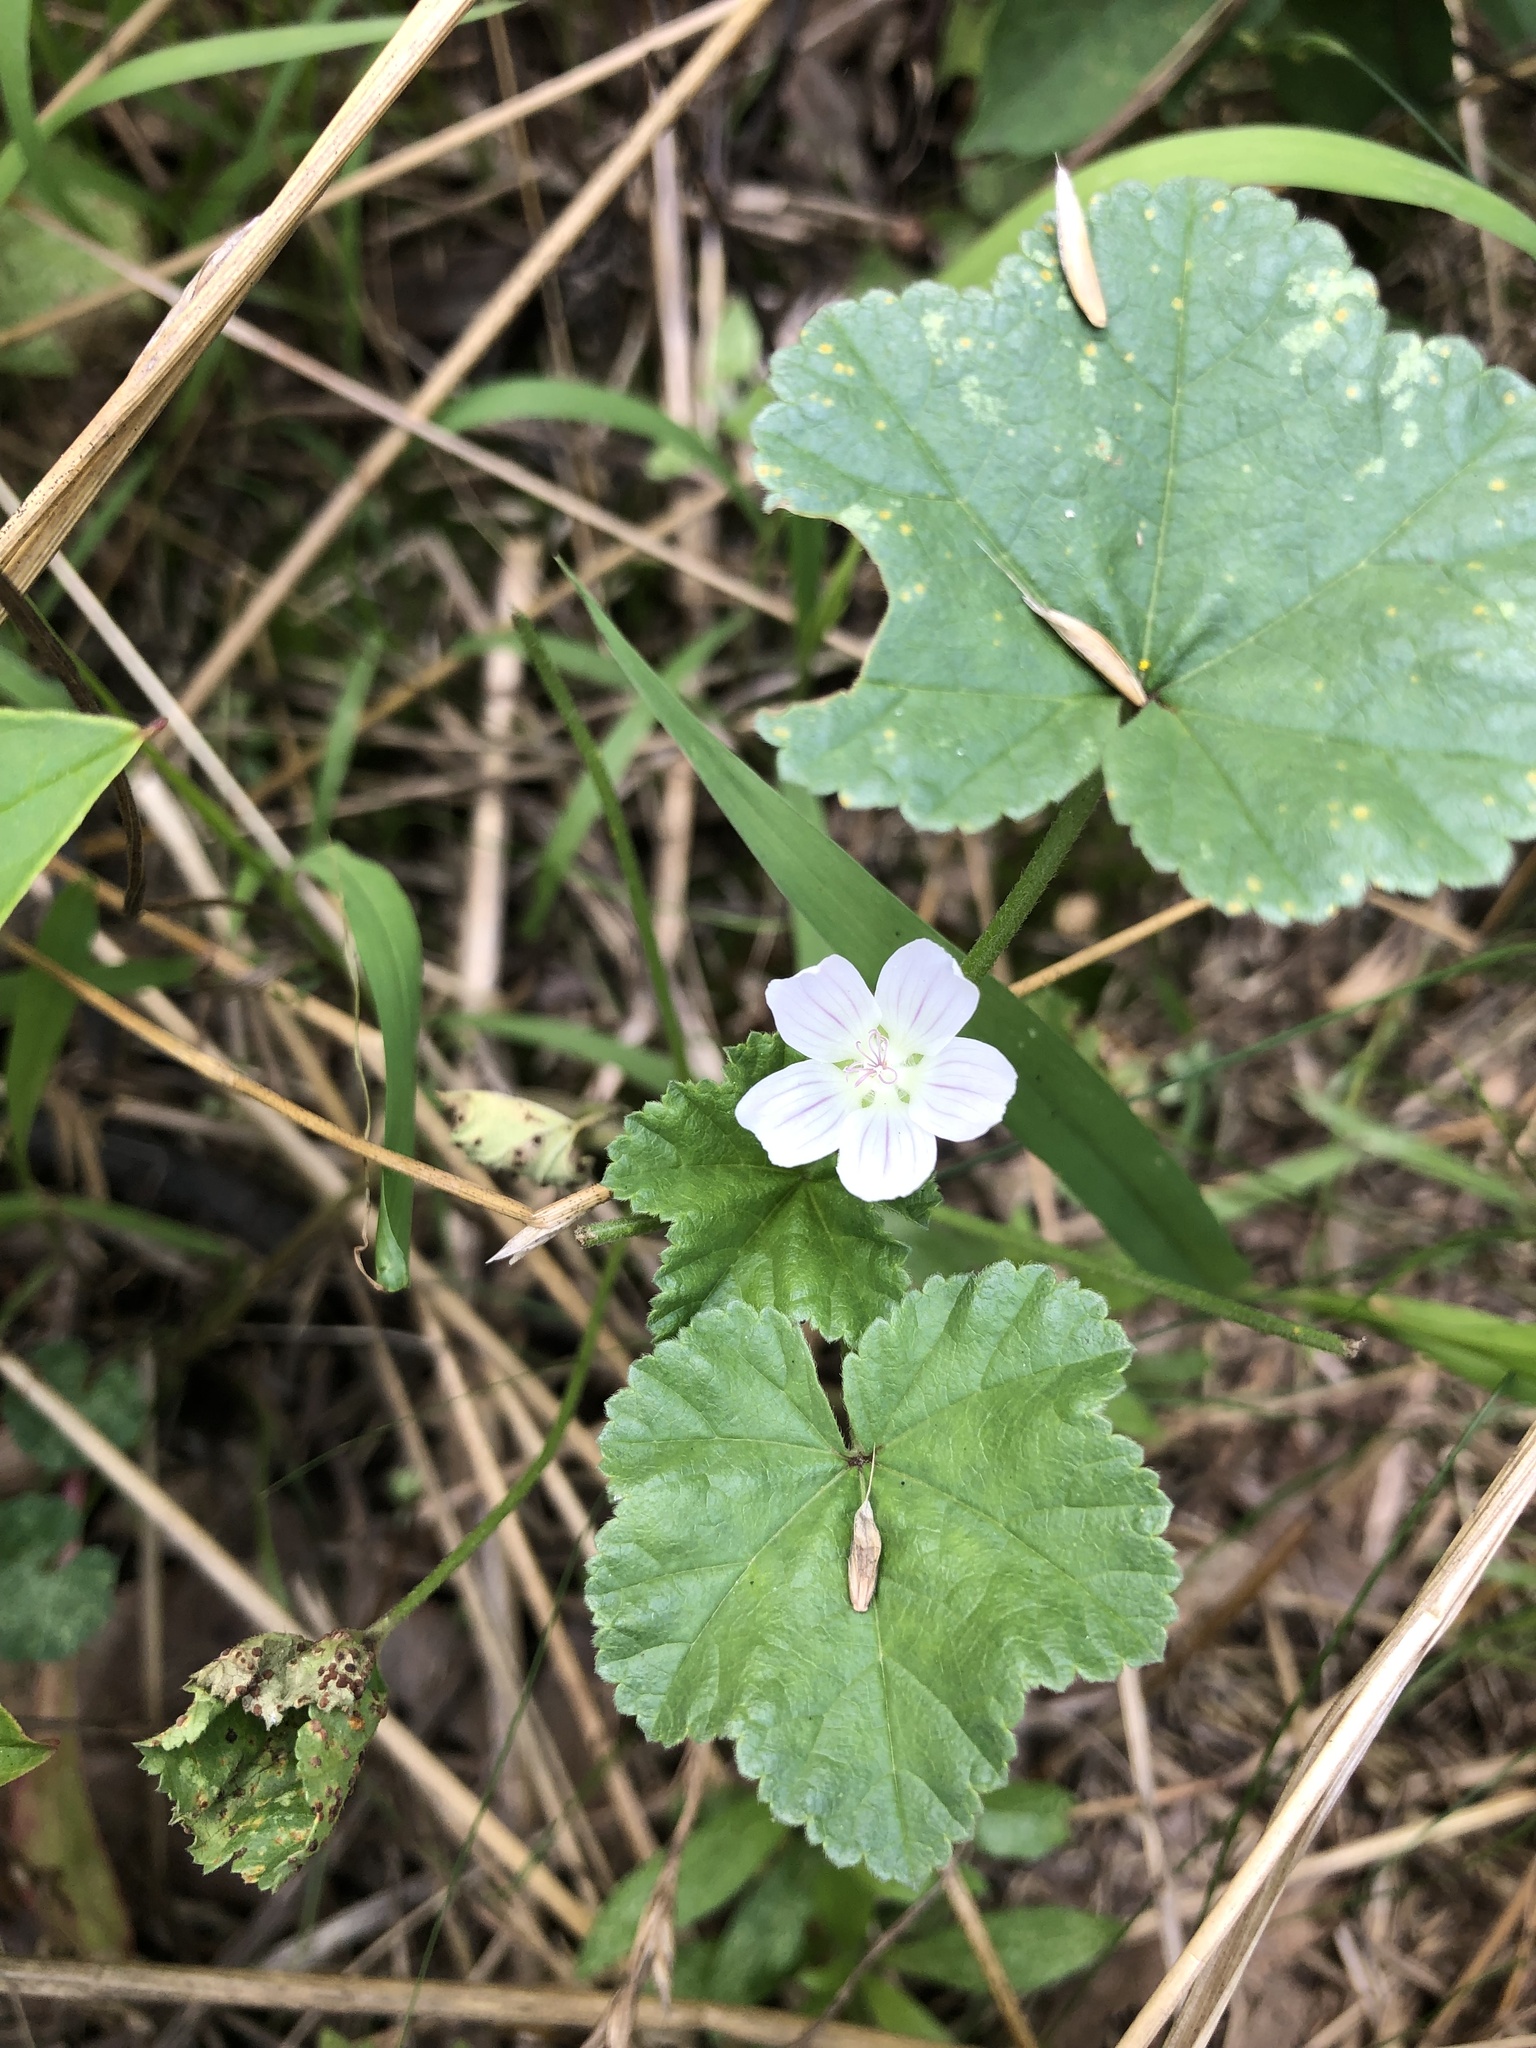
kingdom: Plantae
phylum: Tracheophyta
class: Magnoliopsida
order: Malvales
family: Malvaceae
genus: Malva
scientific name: Malva neglecta
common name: Common mallow
